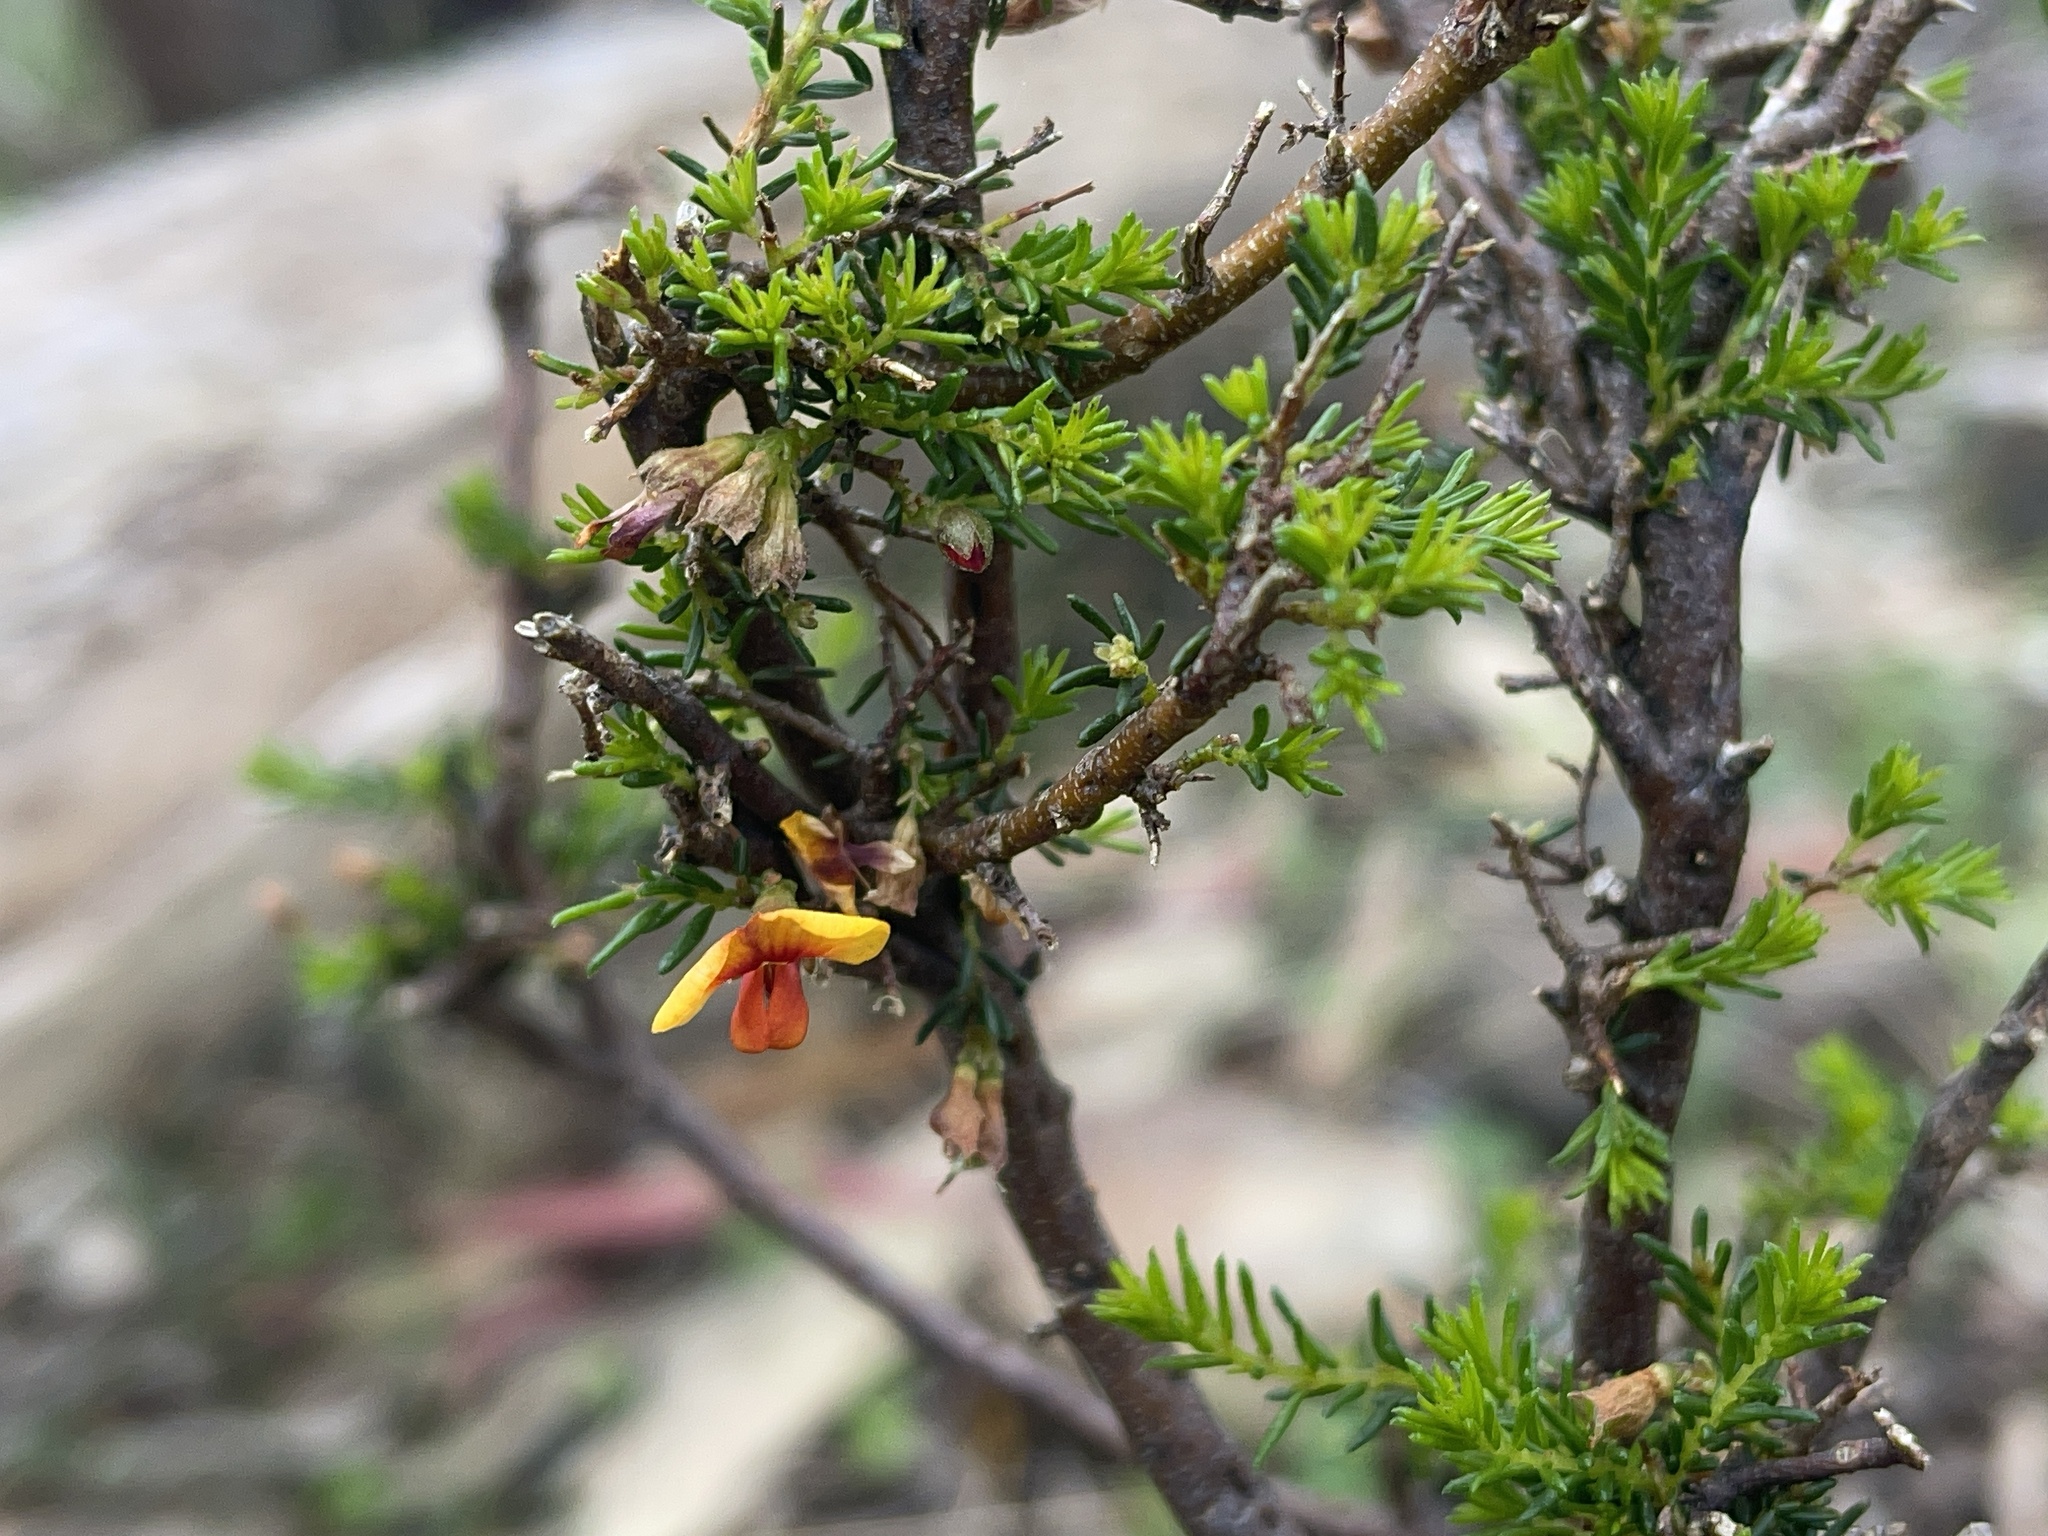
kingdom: Plantae
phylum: Tracheophyta
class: Magnoliopsida
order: Fabales
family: Fabaceae
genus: Dillwynia
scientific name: Dillwynia phylicoides
